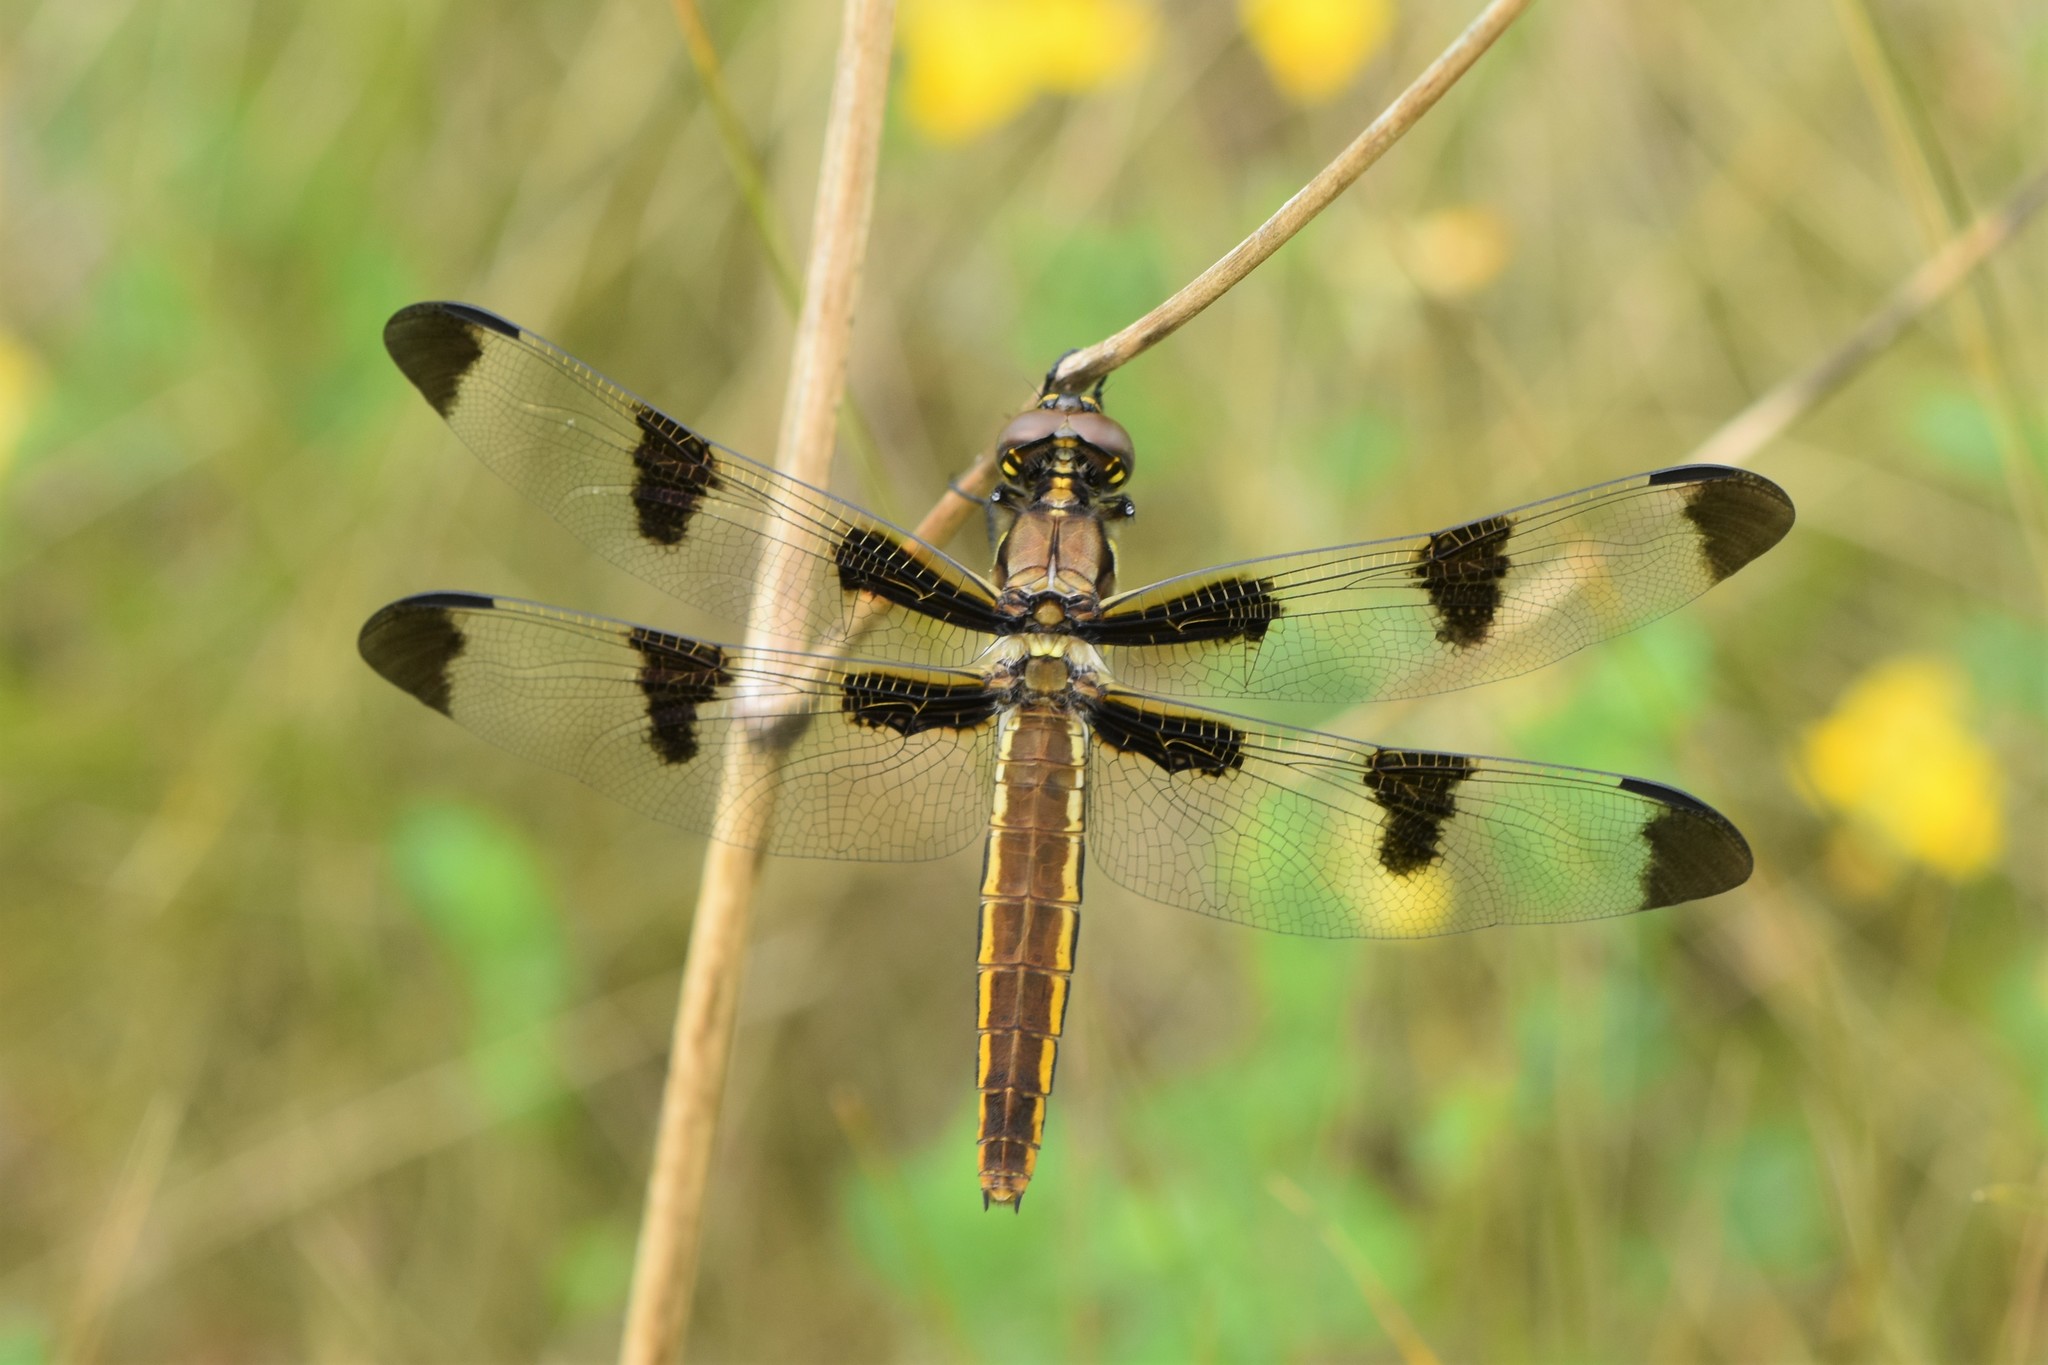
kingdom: Animalia
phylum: Arthropoda
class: Insecta
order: Odonata
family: Libellulidae
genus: Libellula
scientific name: Libellula pulchella
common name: Twelve-spotted skimmer
